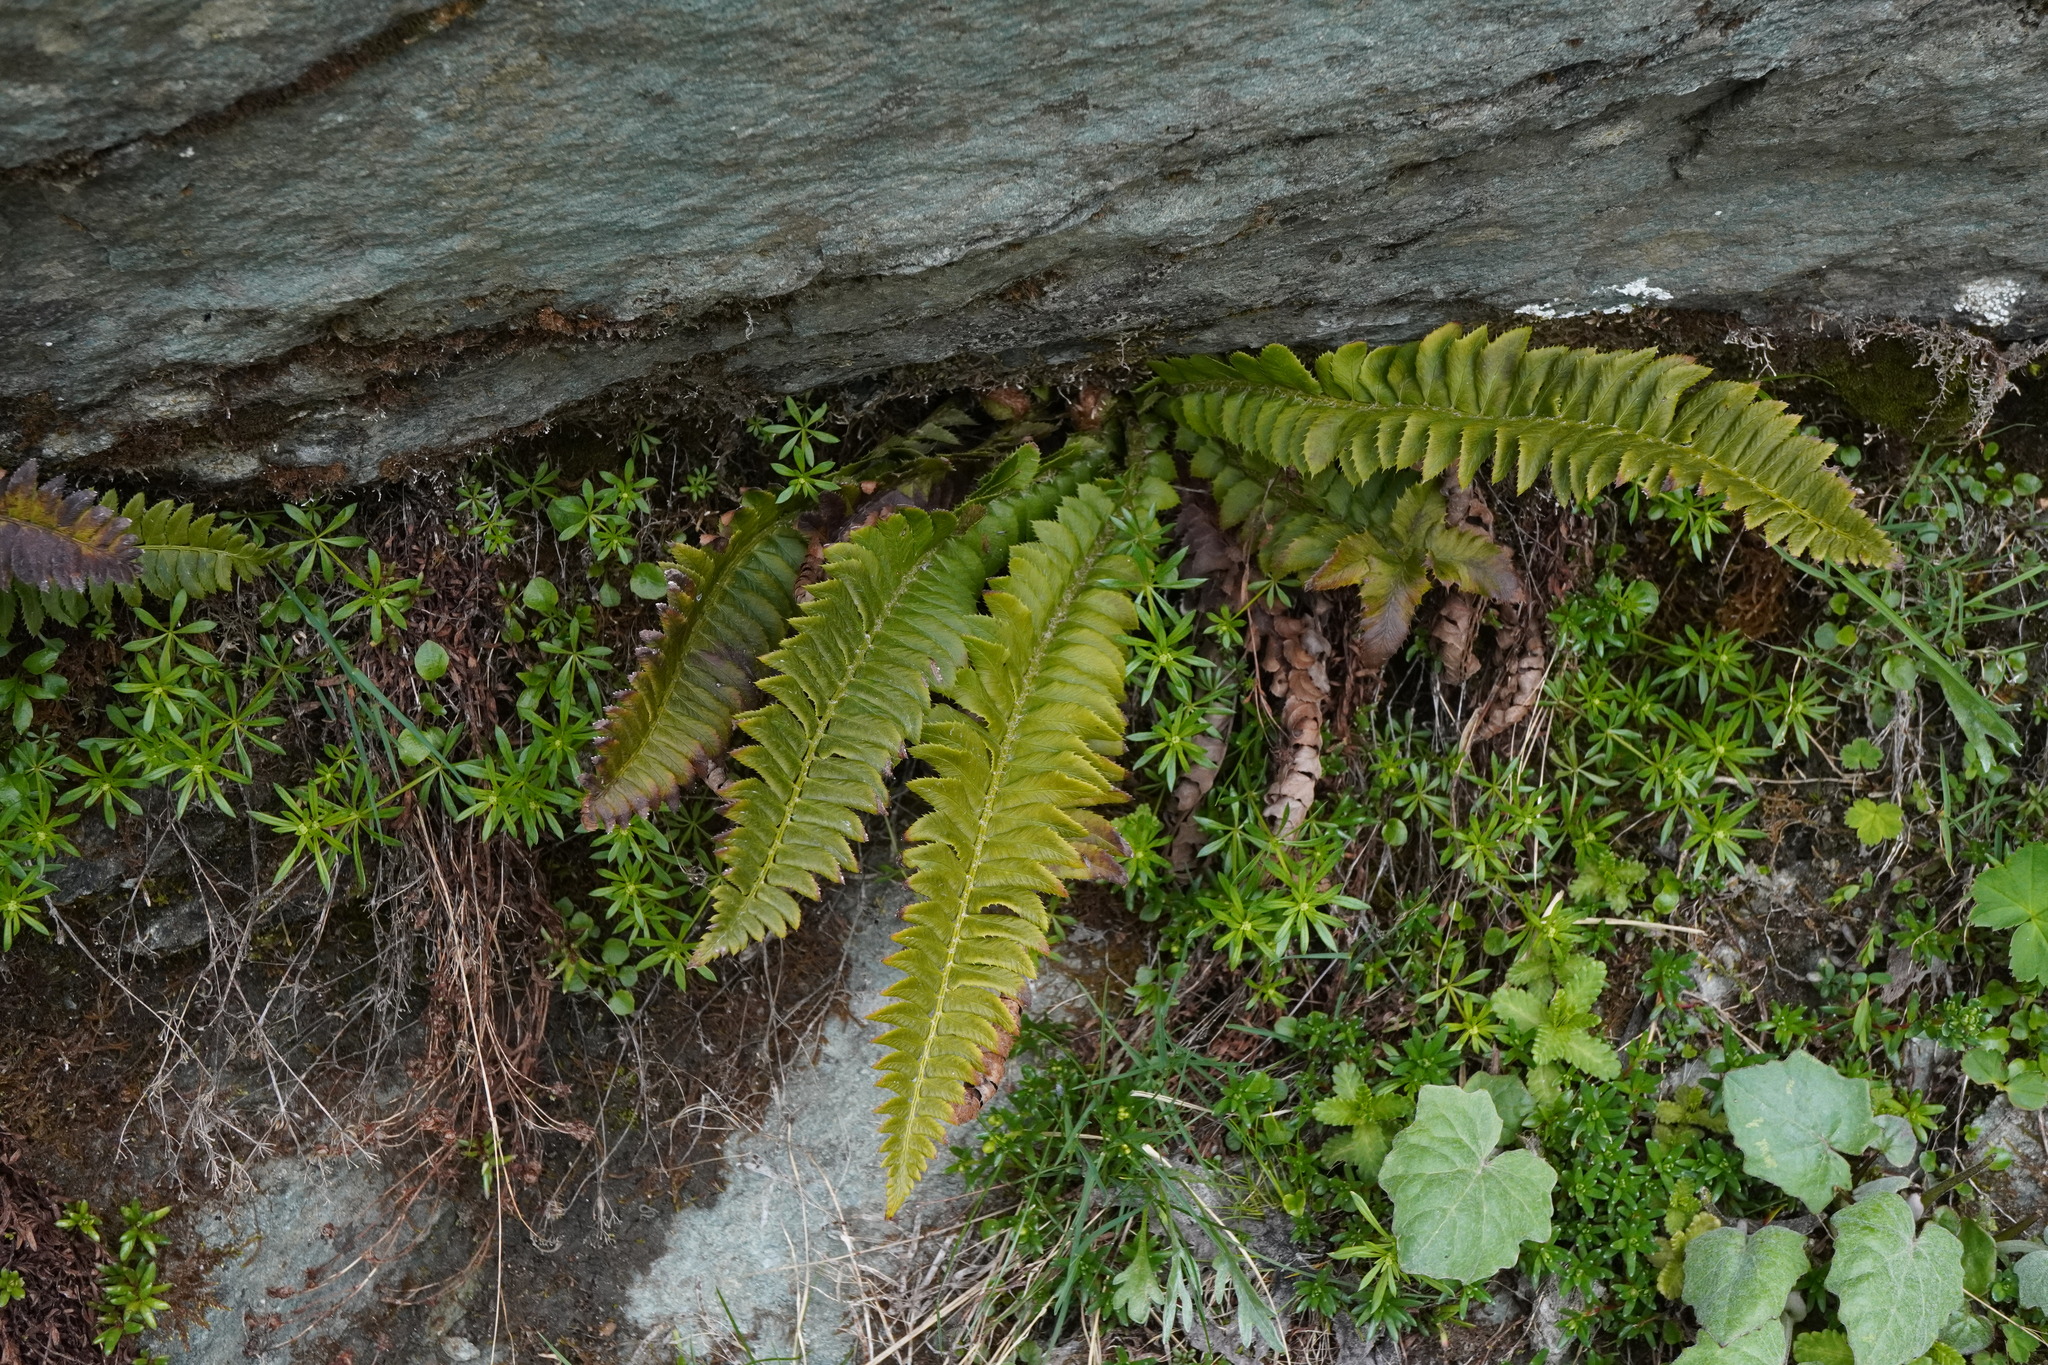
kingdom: Plantae
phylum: Tracheophyta
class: Polypodiopsida
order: Polypodiales
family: Dryopteridaceae
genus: Polystichum
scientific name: Polystichum lonchitis
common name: Holly fern
